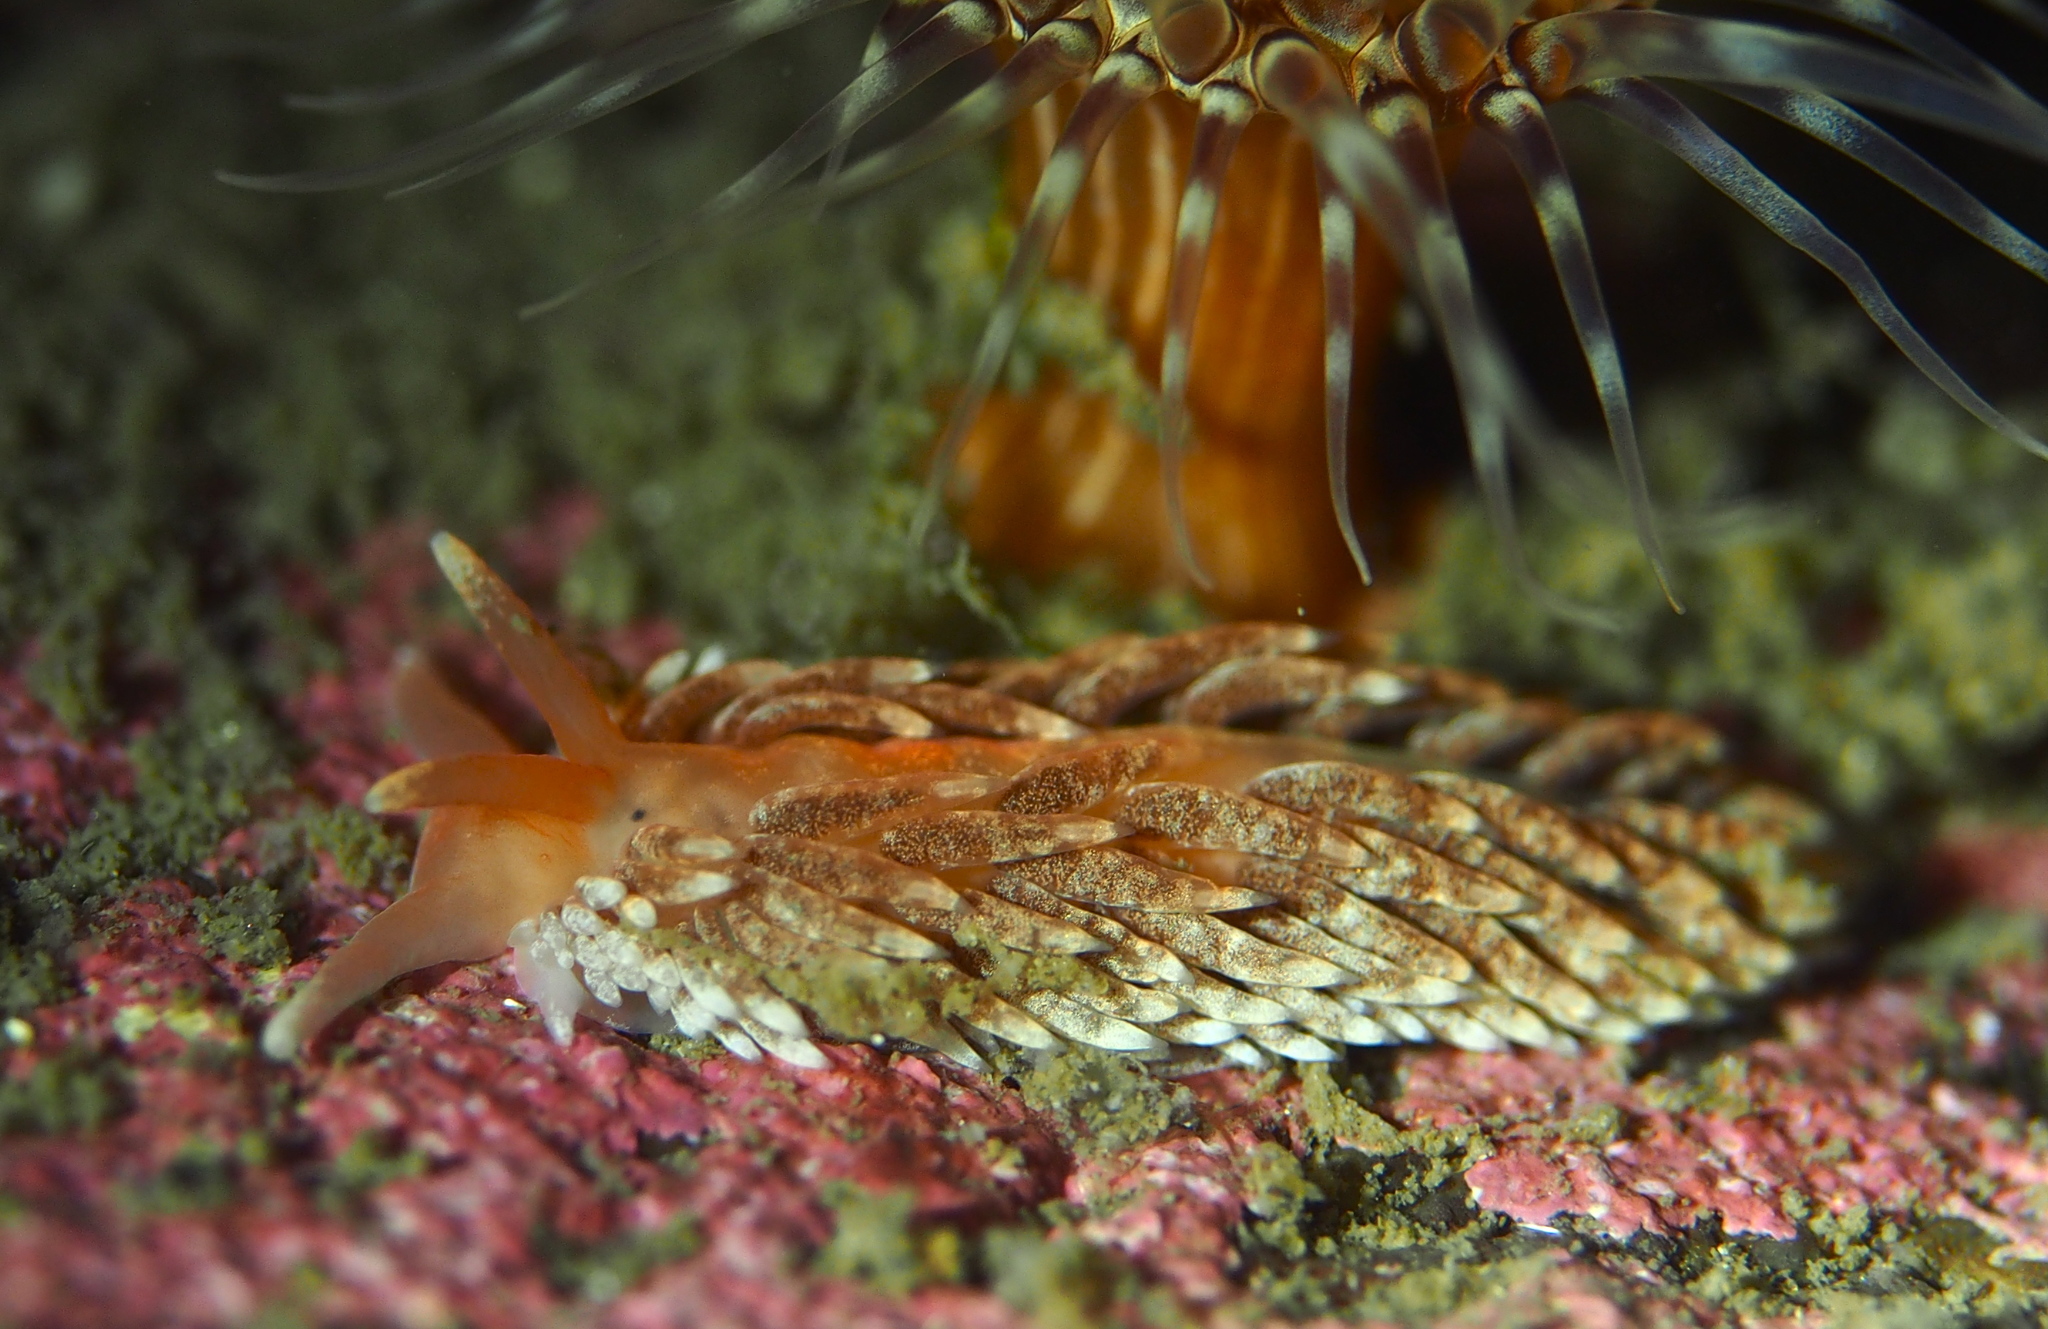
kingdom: Animalia
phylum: Mollusca
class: Gastropoda
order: Nudibranchia
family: Aeolidiidae
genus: Aeolidiella
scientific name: Aeolidiella glauca
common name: Orange-brown aeolid
